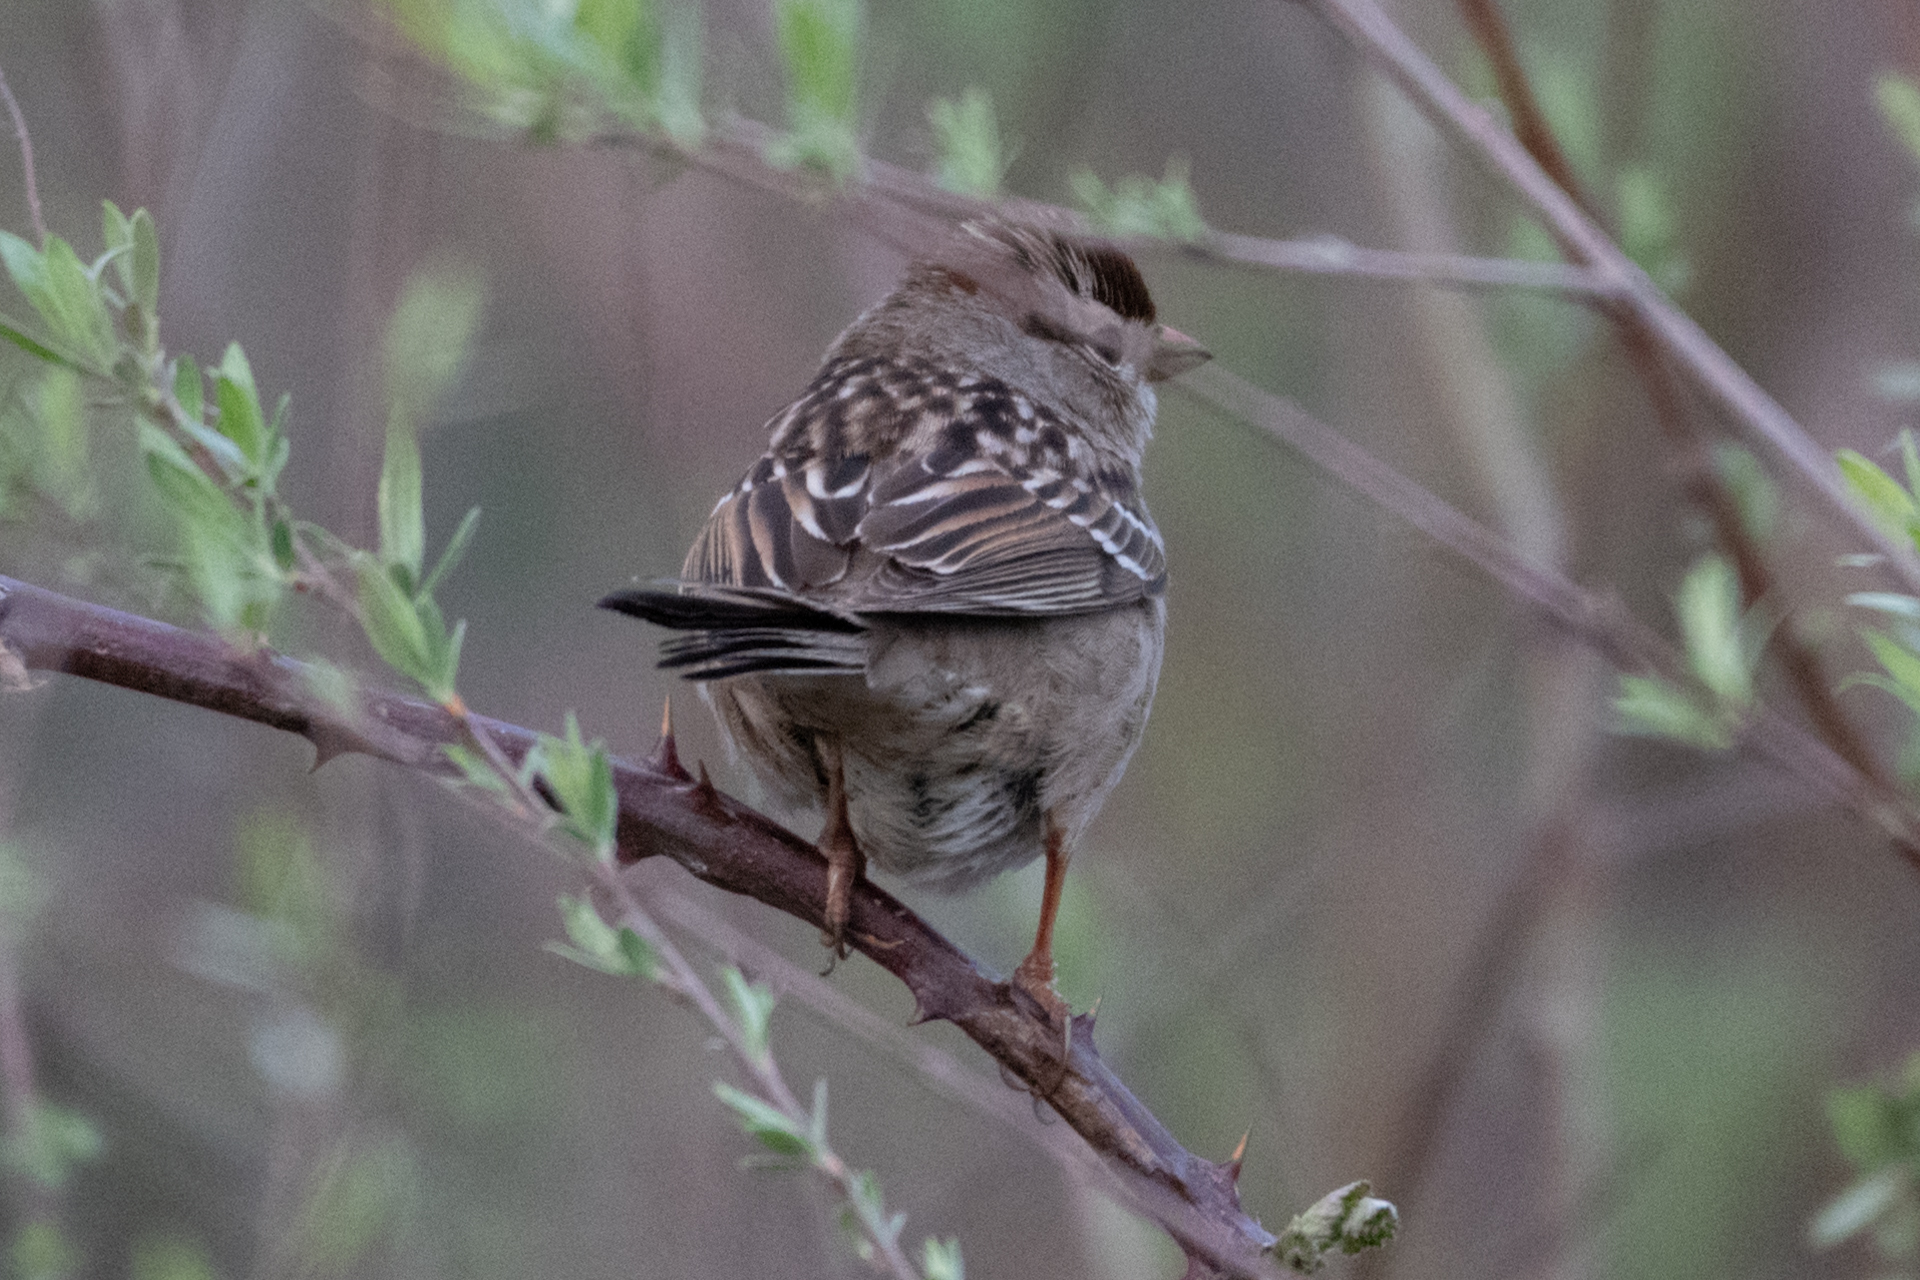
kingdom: Animalia
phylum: Chordata
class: Aves
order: Passeriformes
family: Passerellidae
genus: Zonotrichia
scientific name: Zonotrichia leucophrys
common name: White-crowned sparrow
